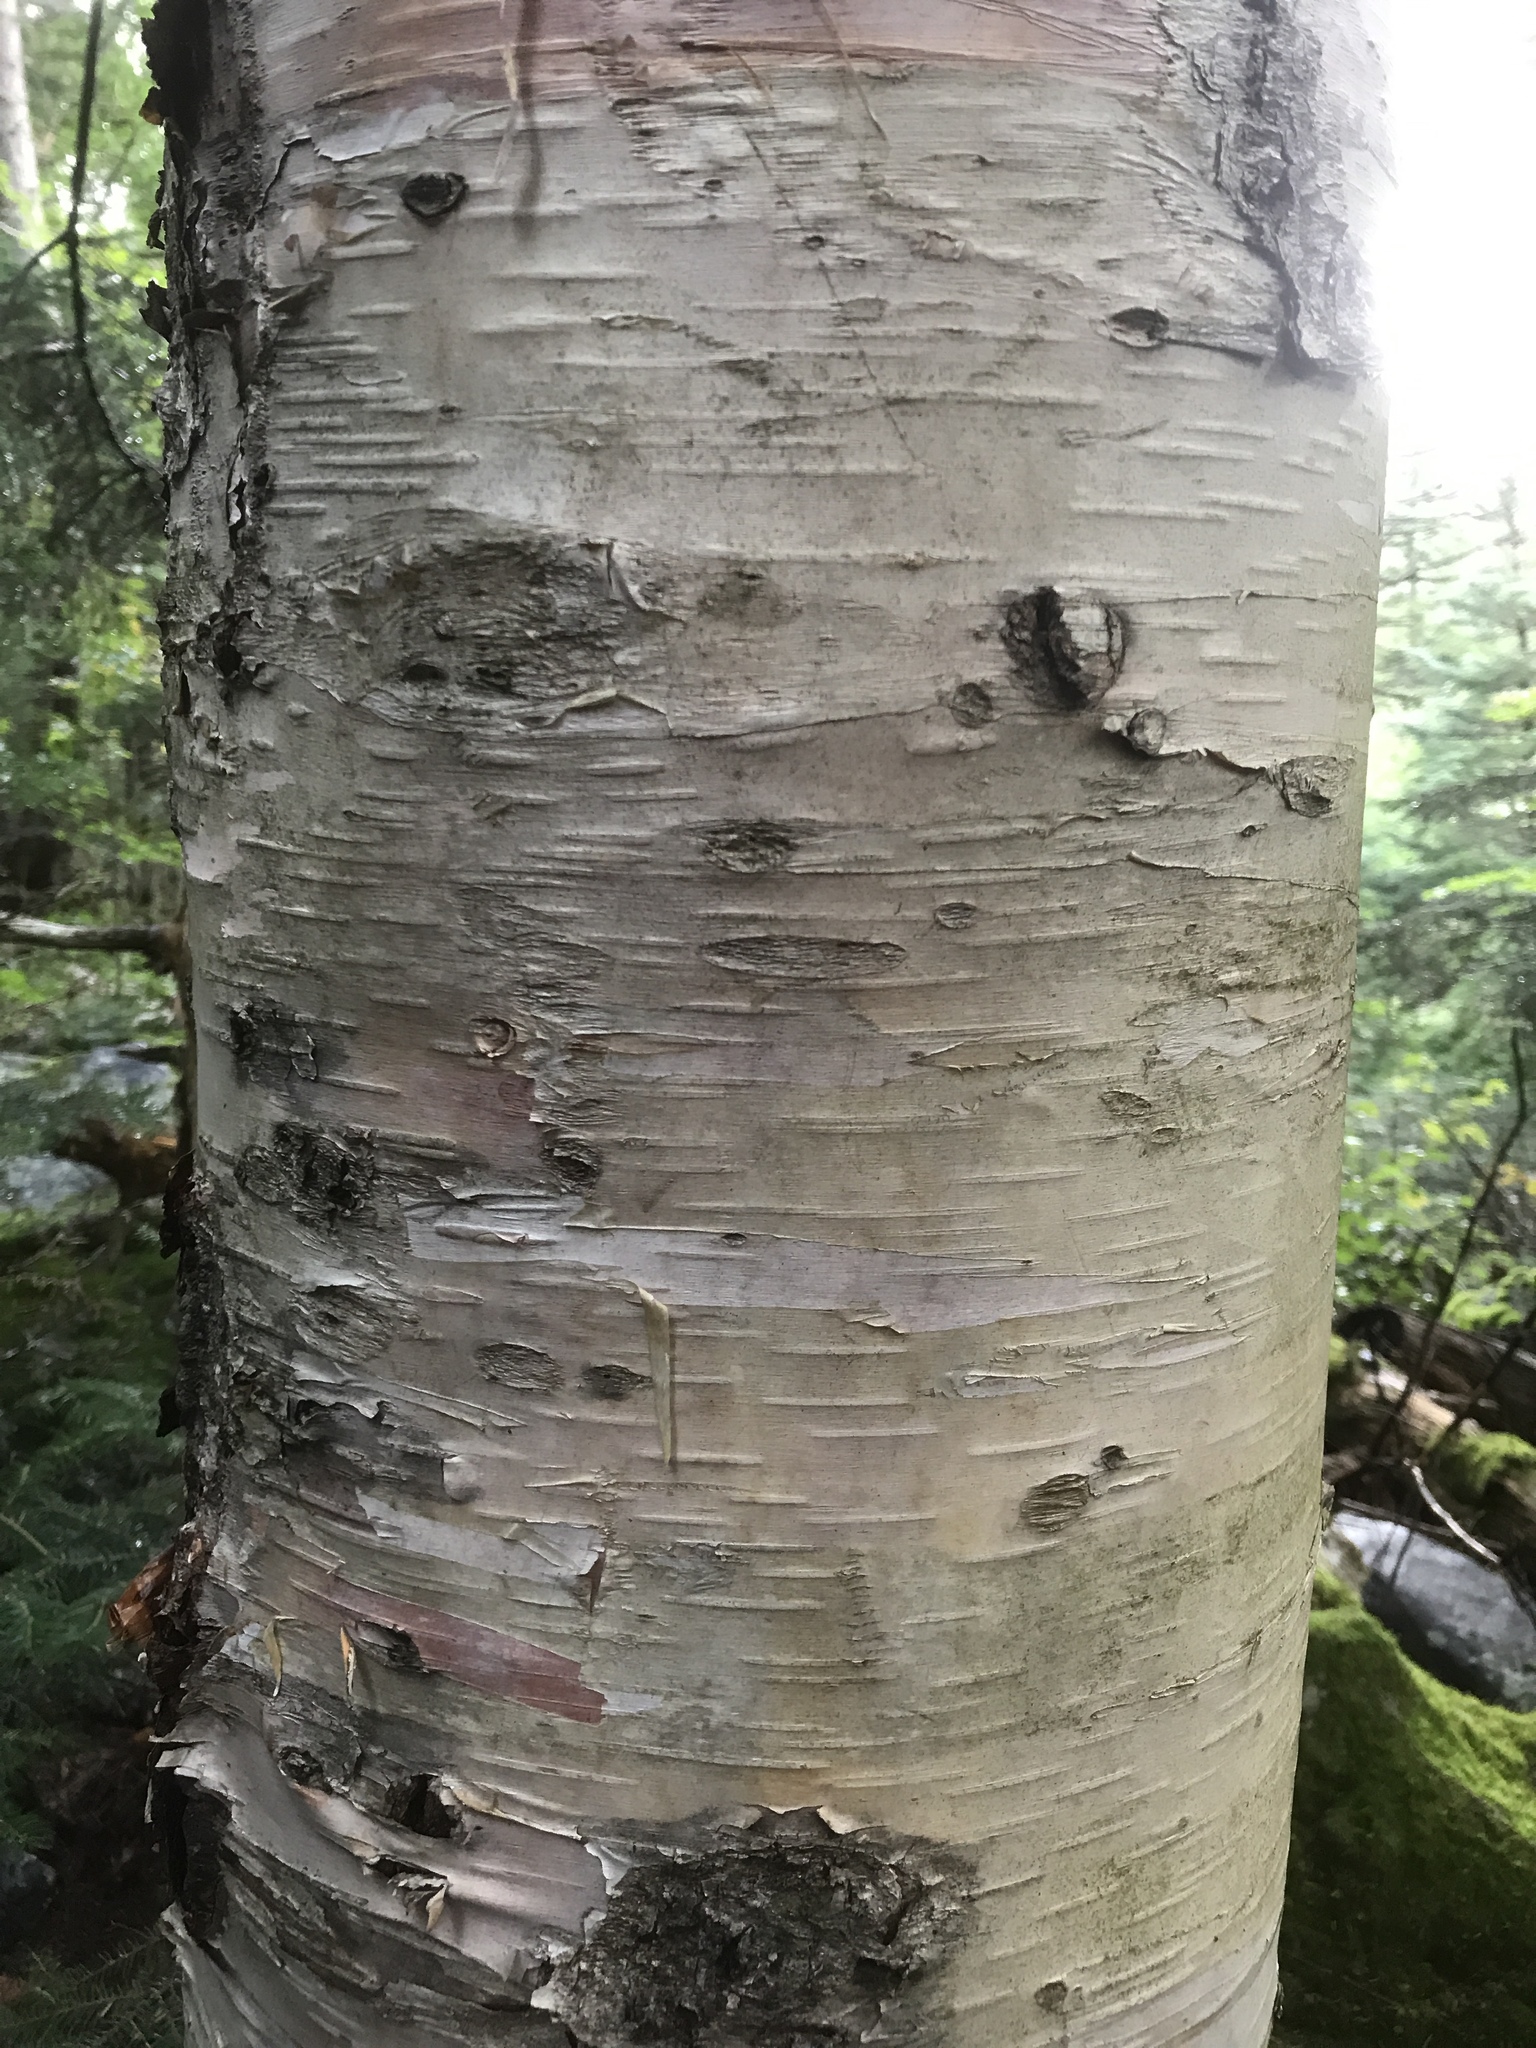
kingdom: Plantae
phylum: Tracheophyta
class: Magnoliopsida
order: Fagales
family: Betulaceae
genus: Betula
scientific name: Betula papyrifera
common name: Paper birch
